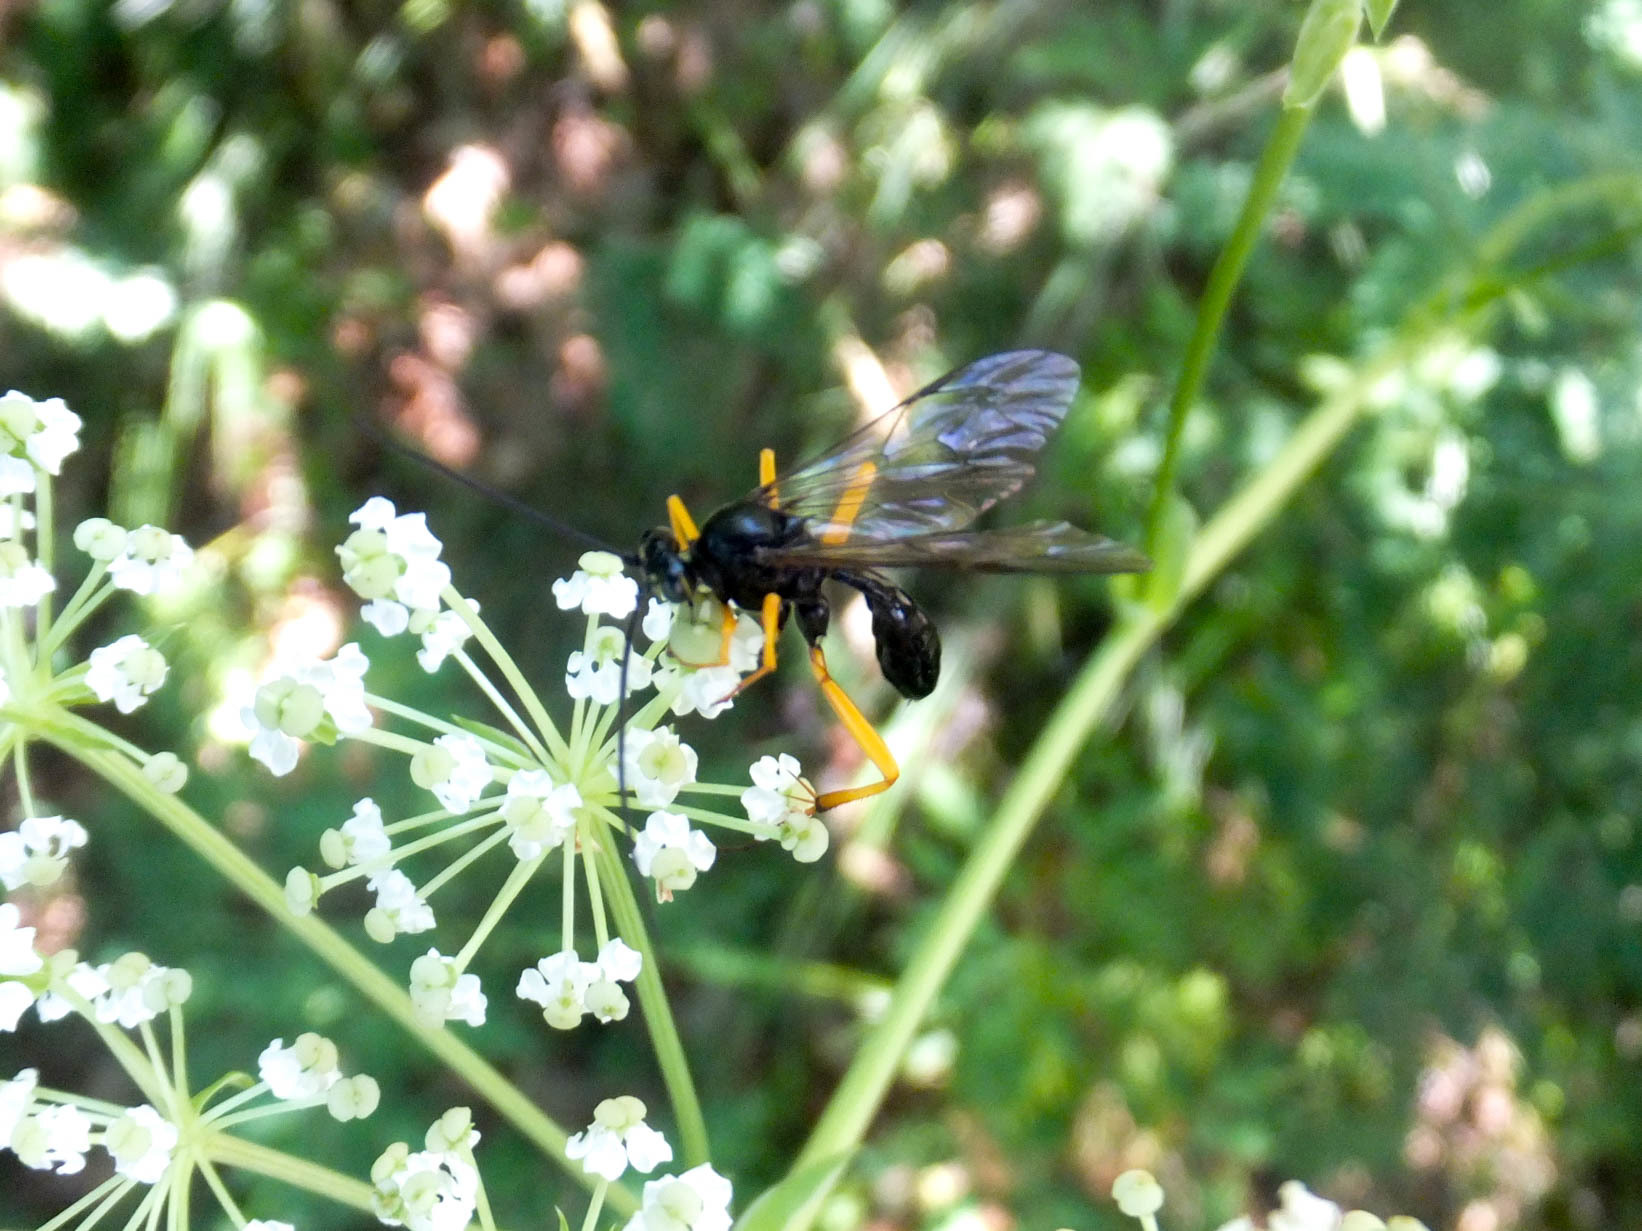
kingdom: Animalia
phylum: Arthropoda
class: Insecta
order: Hymenoptera
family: Ichneumonidae
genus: Banchus
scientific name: Banchus volutatorius
